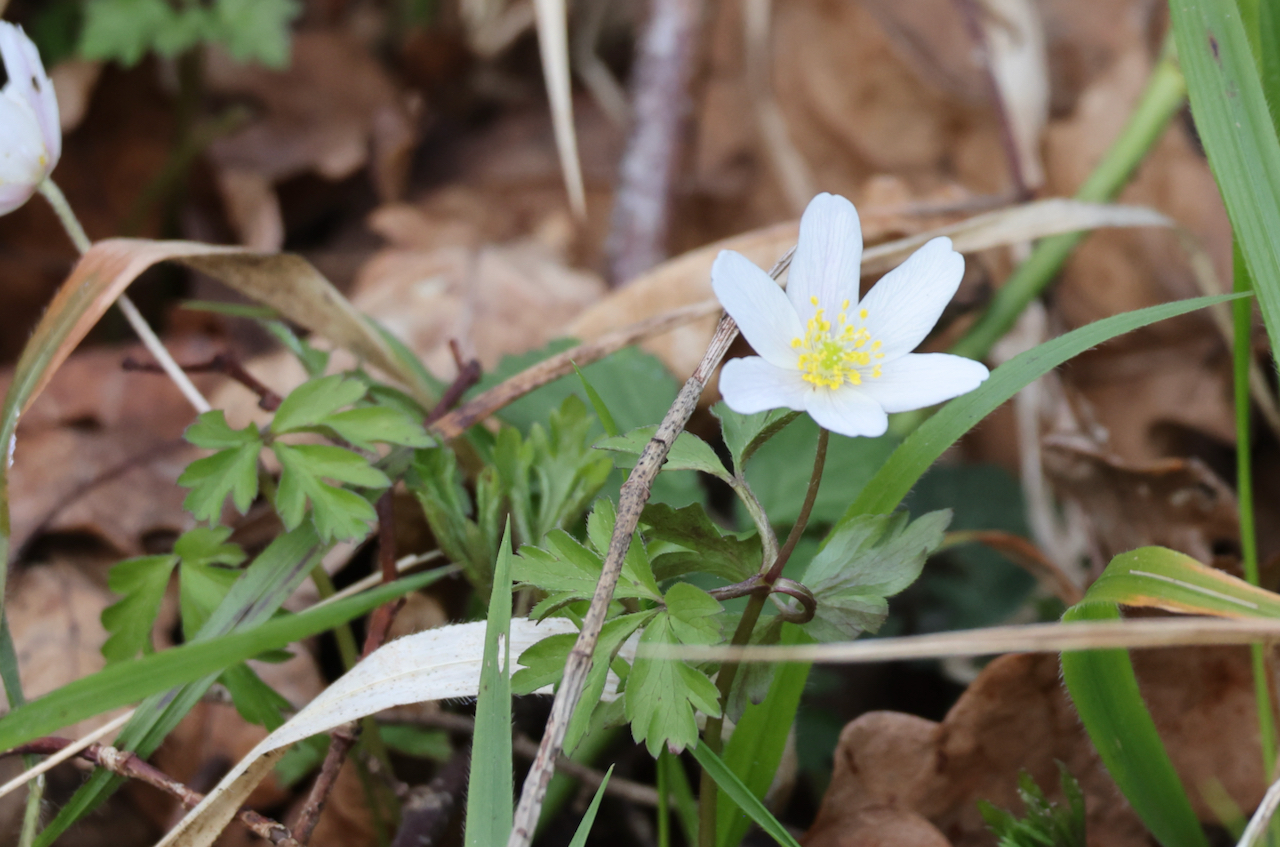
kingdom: Plantae
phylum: Tracheophyta
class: Magnoliopsida
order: Ranunculales
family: Ranunculaceae
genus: Anemone
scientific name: Anemone nemorosa
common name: Wood anemone
